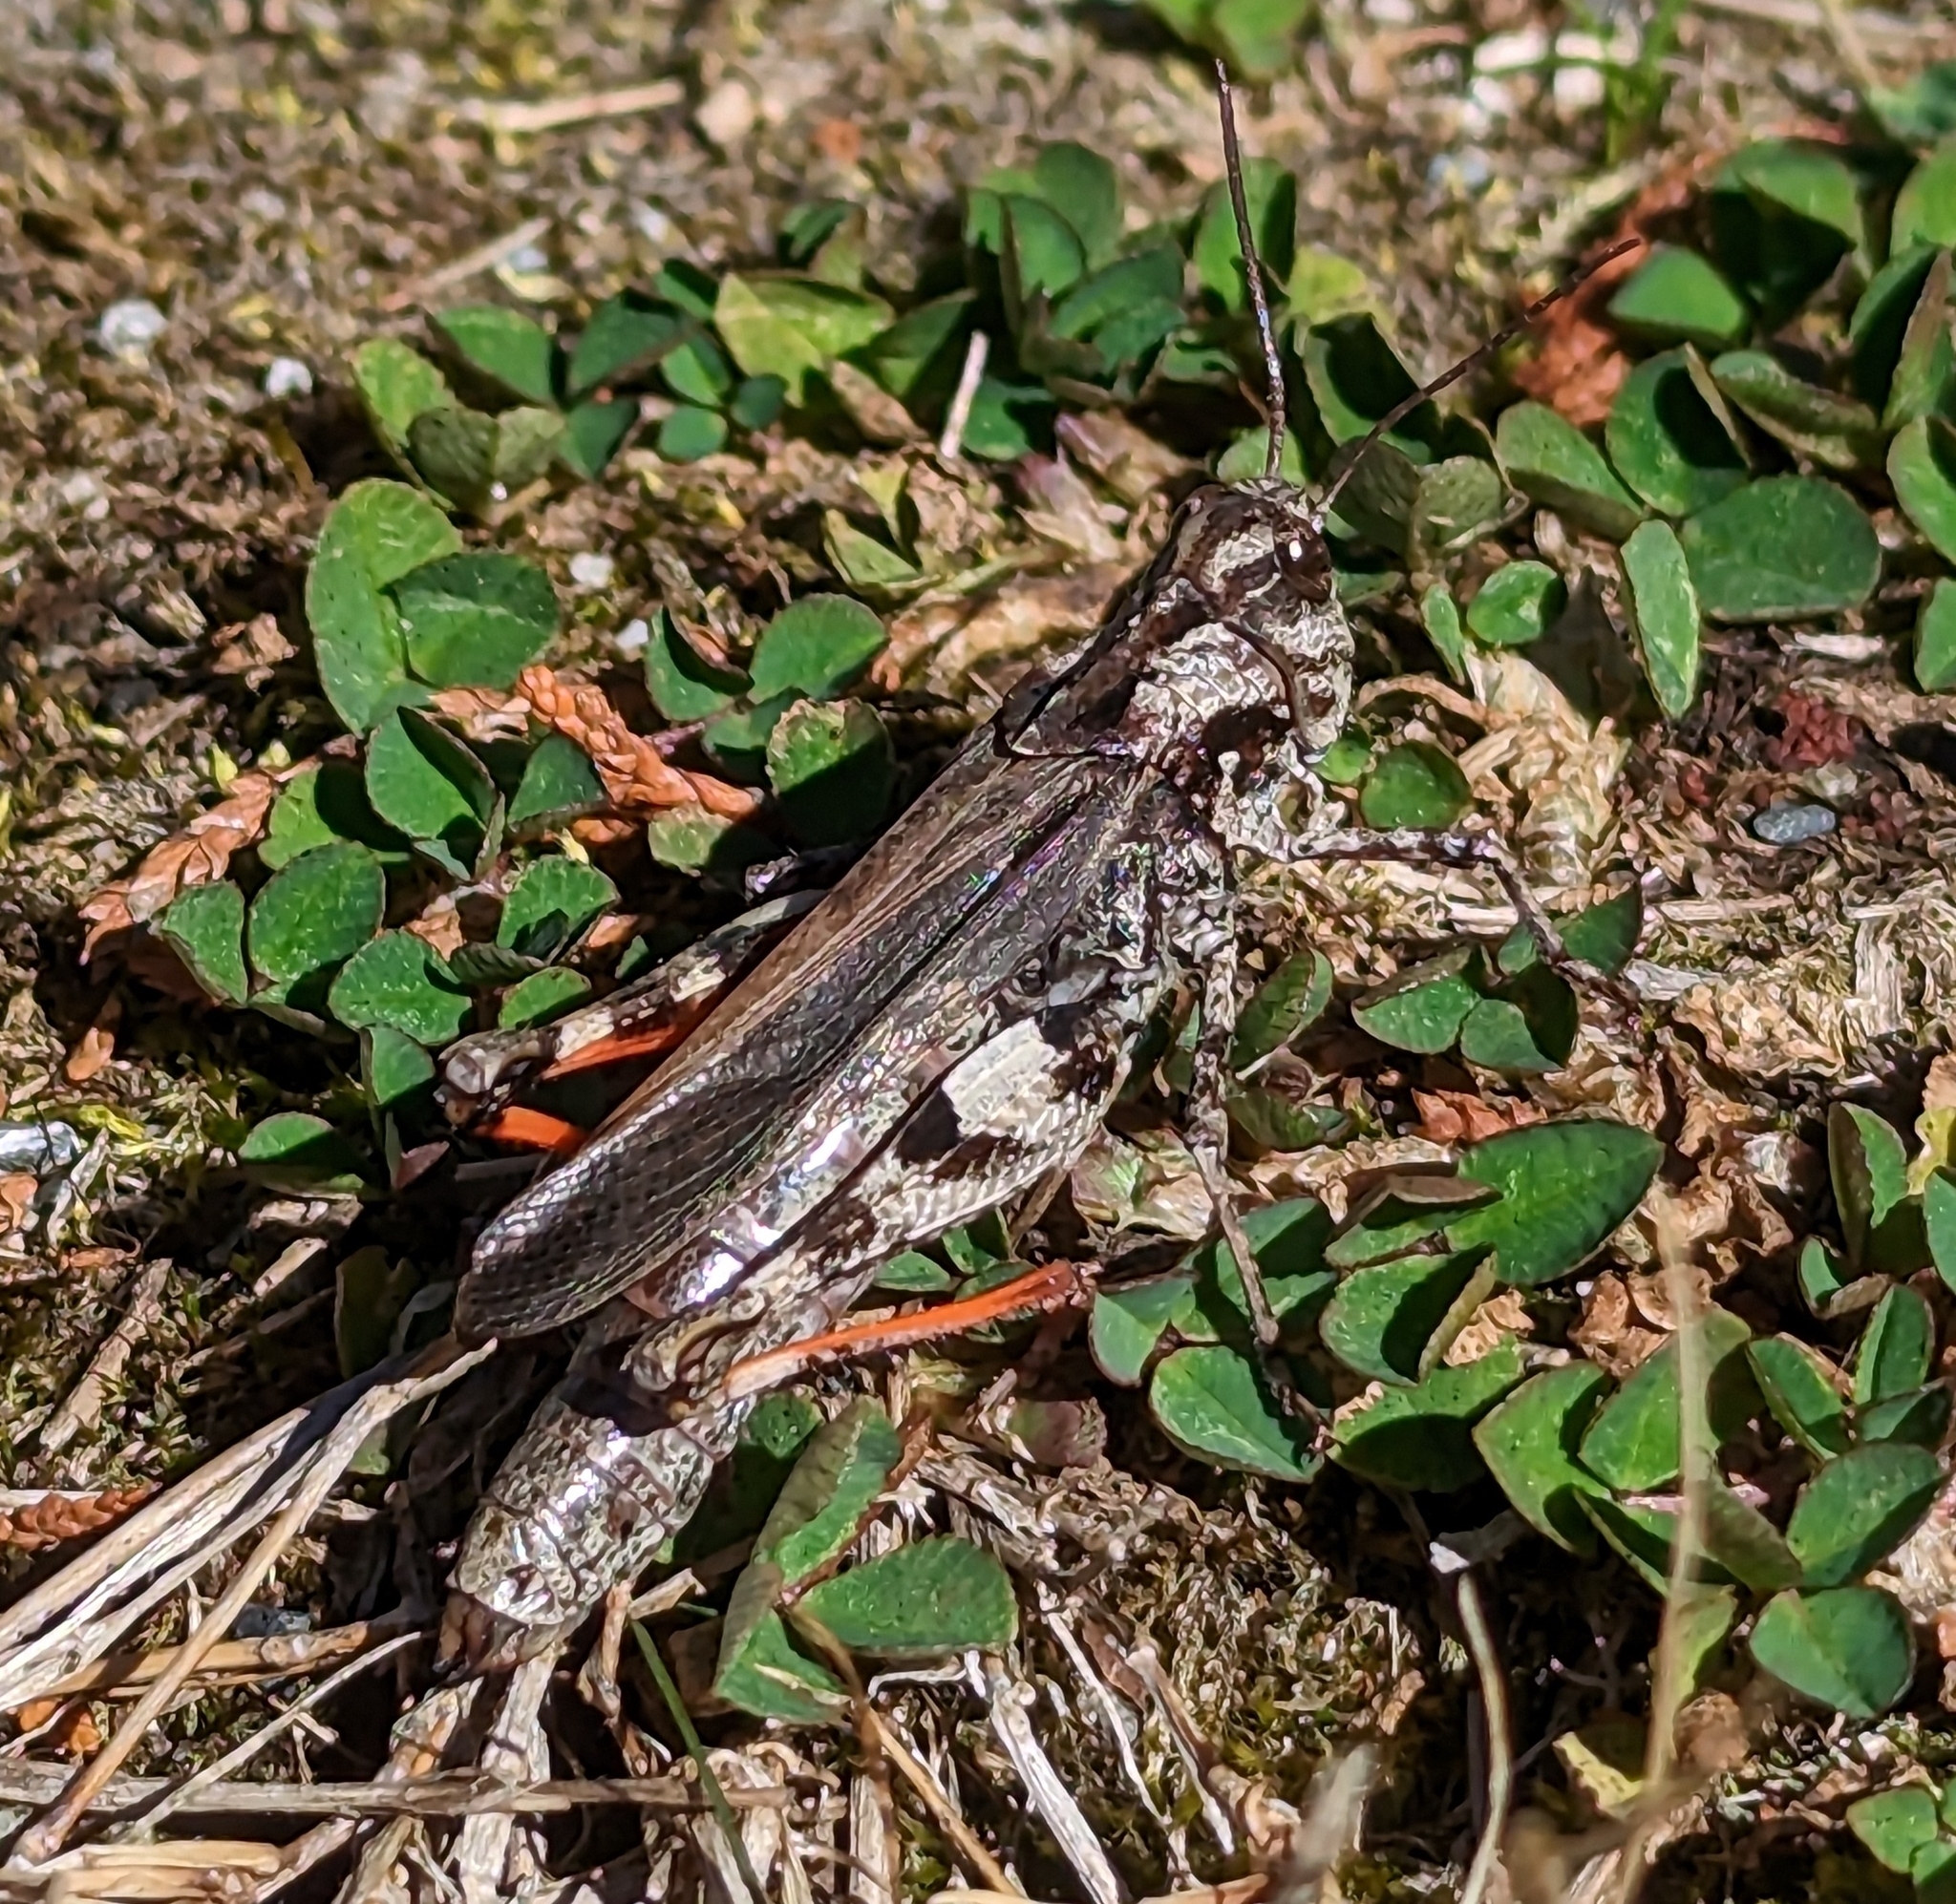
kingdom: Animalia
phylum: Arthropoda
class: Insecta
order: Orthoptera
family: Acrididae
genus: Oedaleus
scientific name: Oedaleus formosanus
